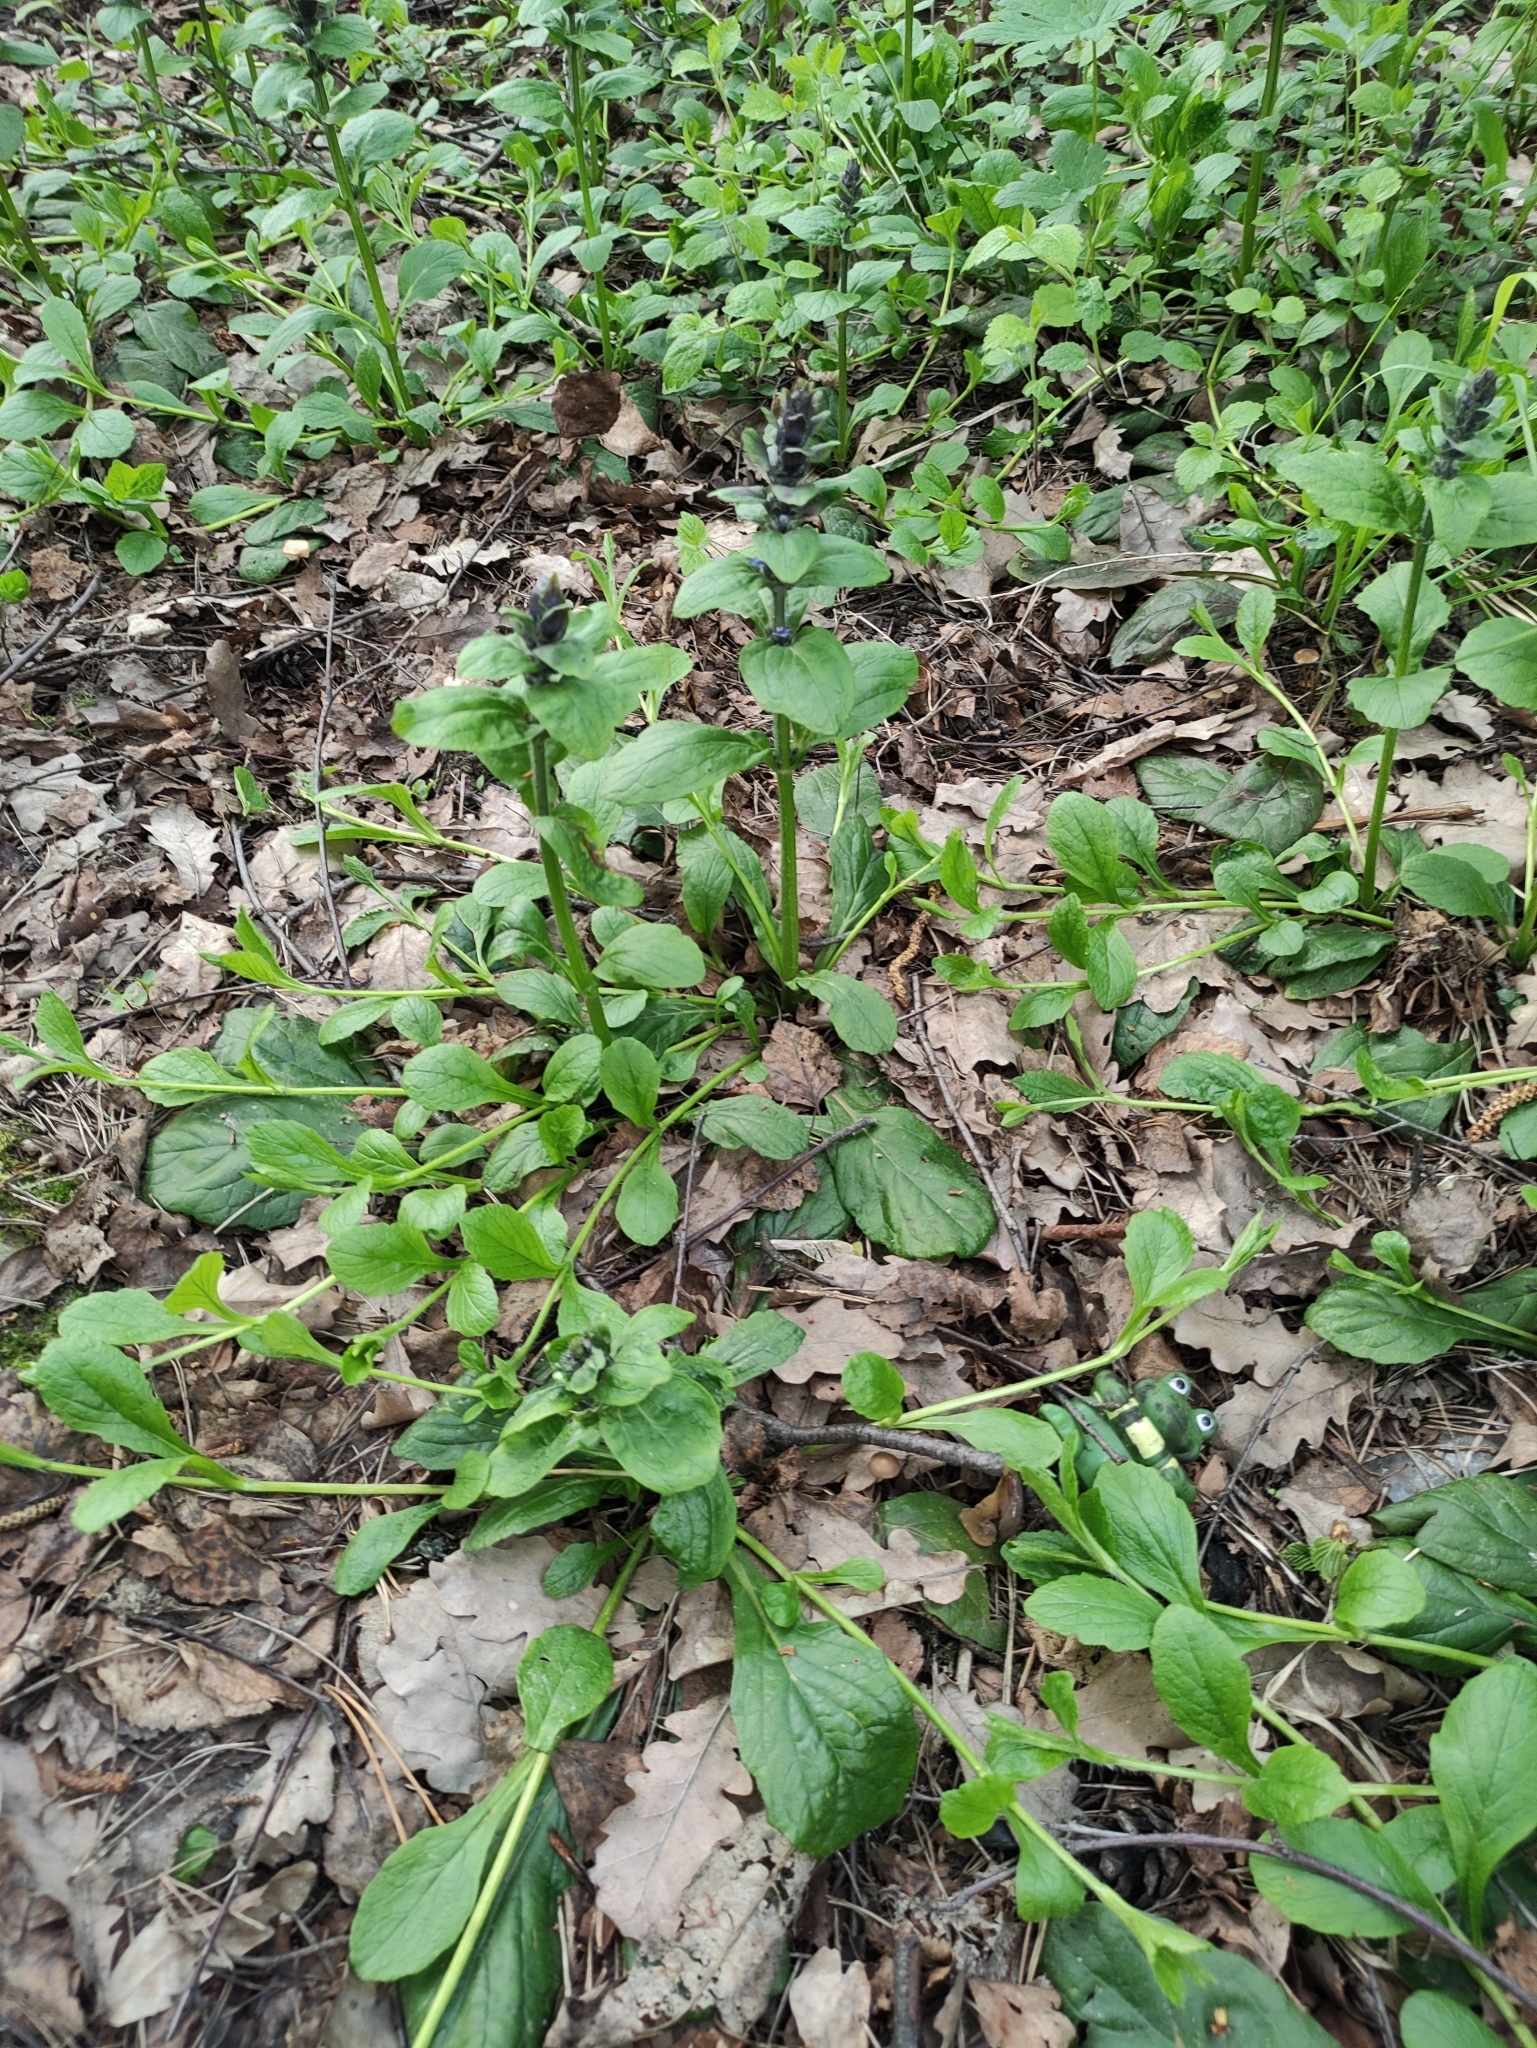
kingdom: Plantae
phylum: Tracheophyta
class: Magnoliopsida
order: Lamiales
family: Lamiaceae
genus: Ajuga
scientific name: Ajuga reptans
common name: Bugle
